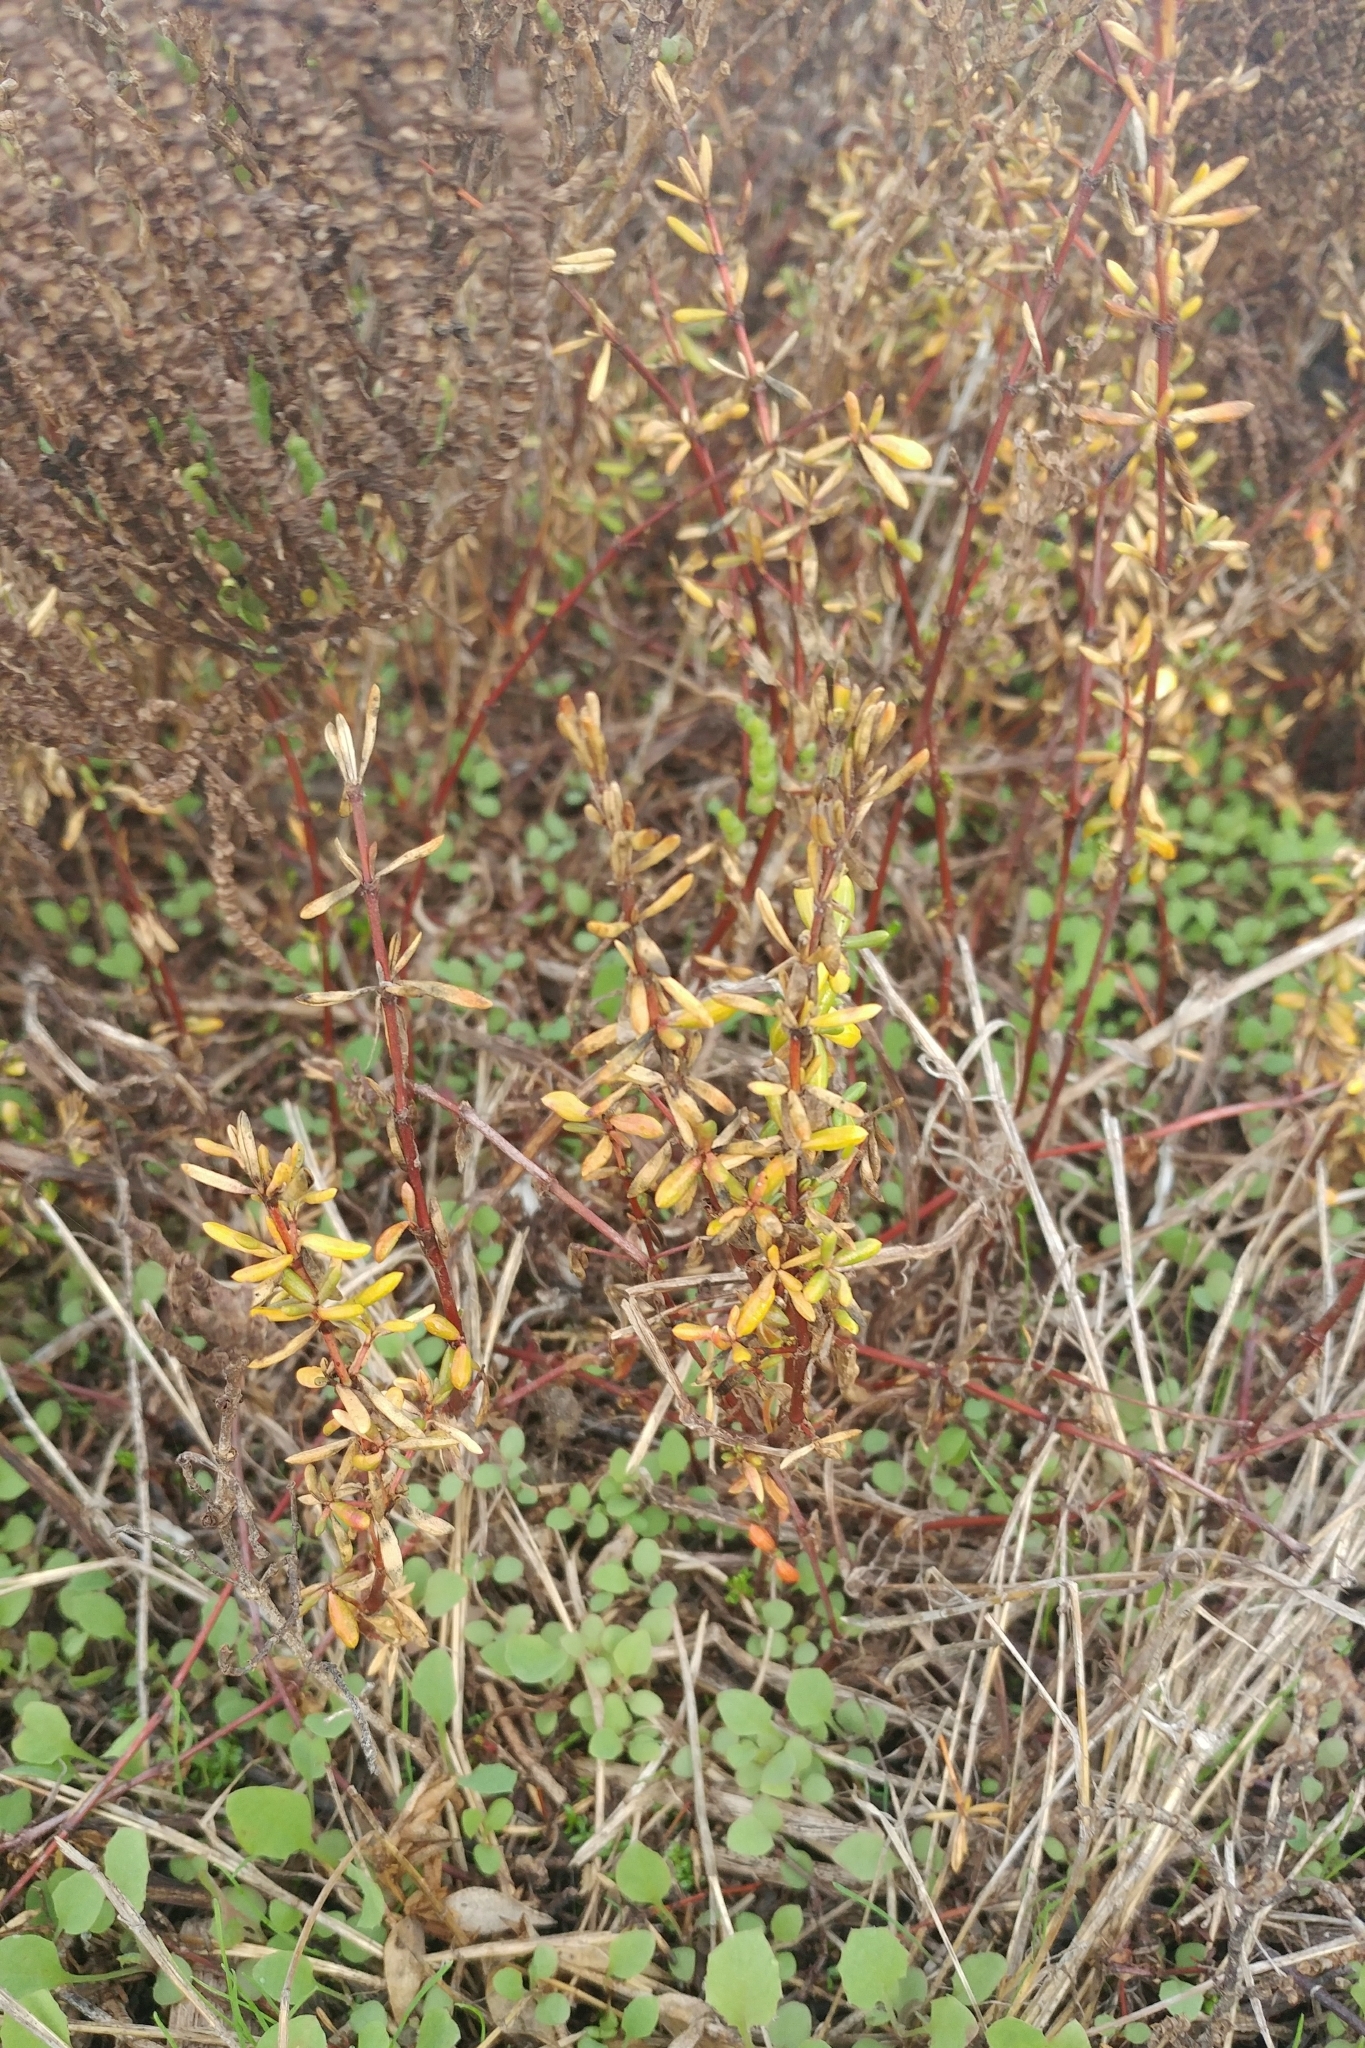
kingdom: Plantae
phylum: Tracheophyta
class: Magnoliopsida
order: Caryophyllales
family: Frankeniaceae
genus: Frankenia
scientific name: Frankenia salina
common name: Alkali seaheath
